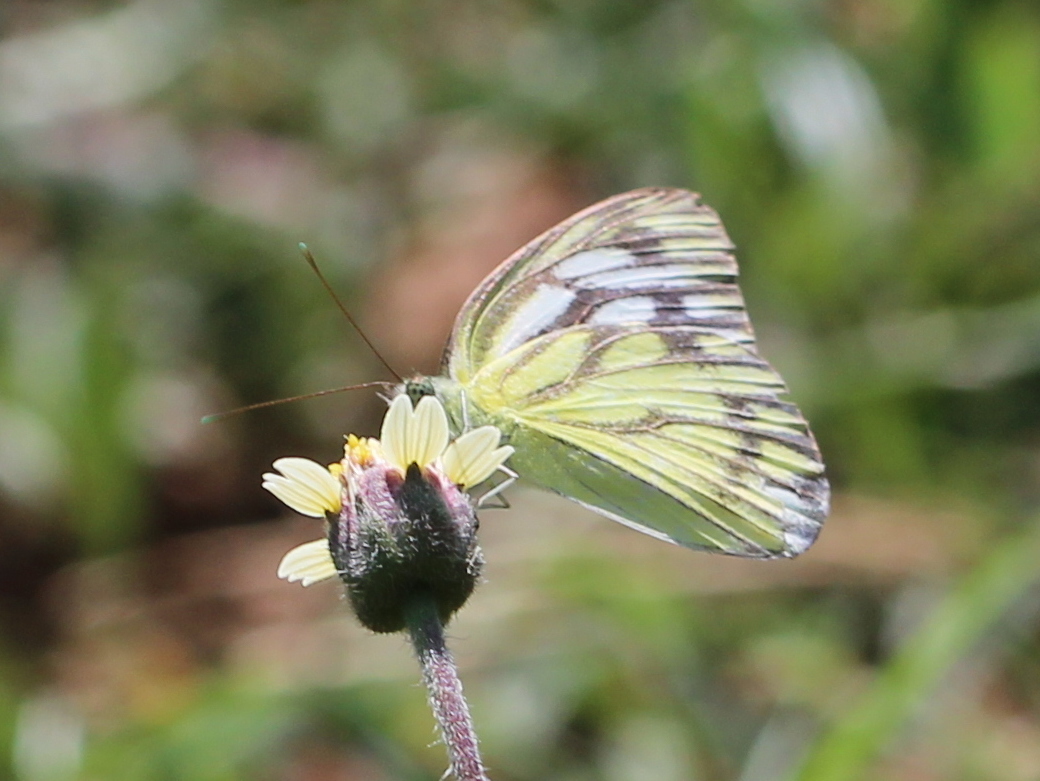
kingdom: Animalia
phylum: Arthropoda
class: Insecta
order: Lepidoptera
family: Pieridae
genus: Cepora
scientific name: Cepora nerissa
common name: Common gull
